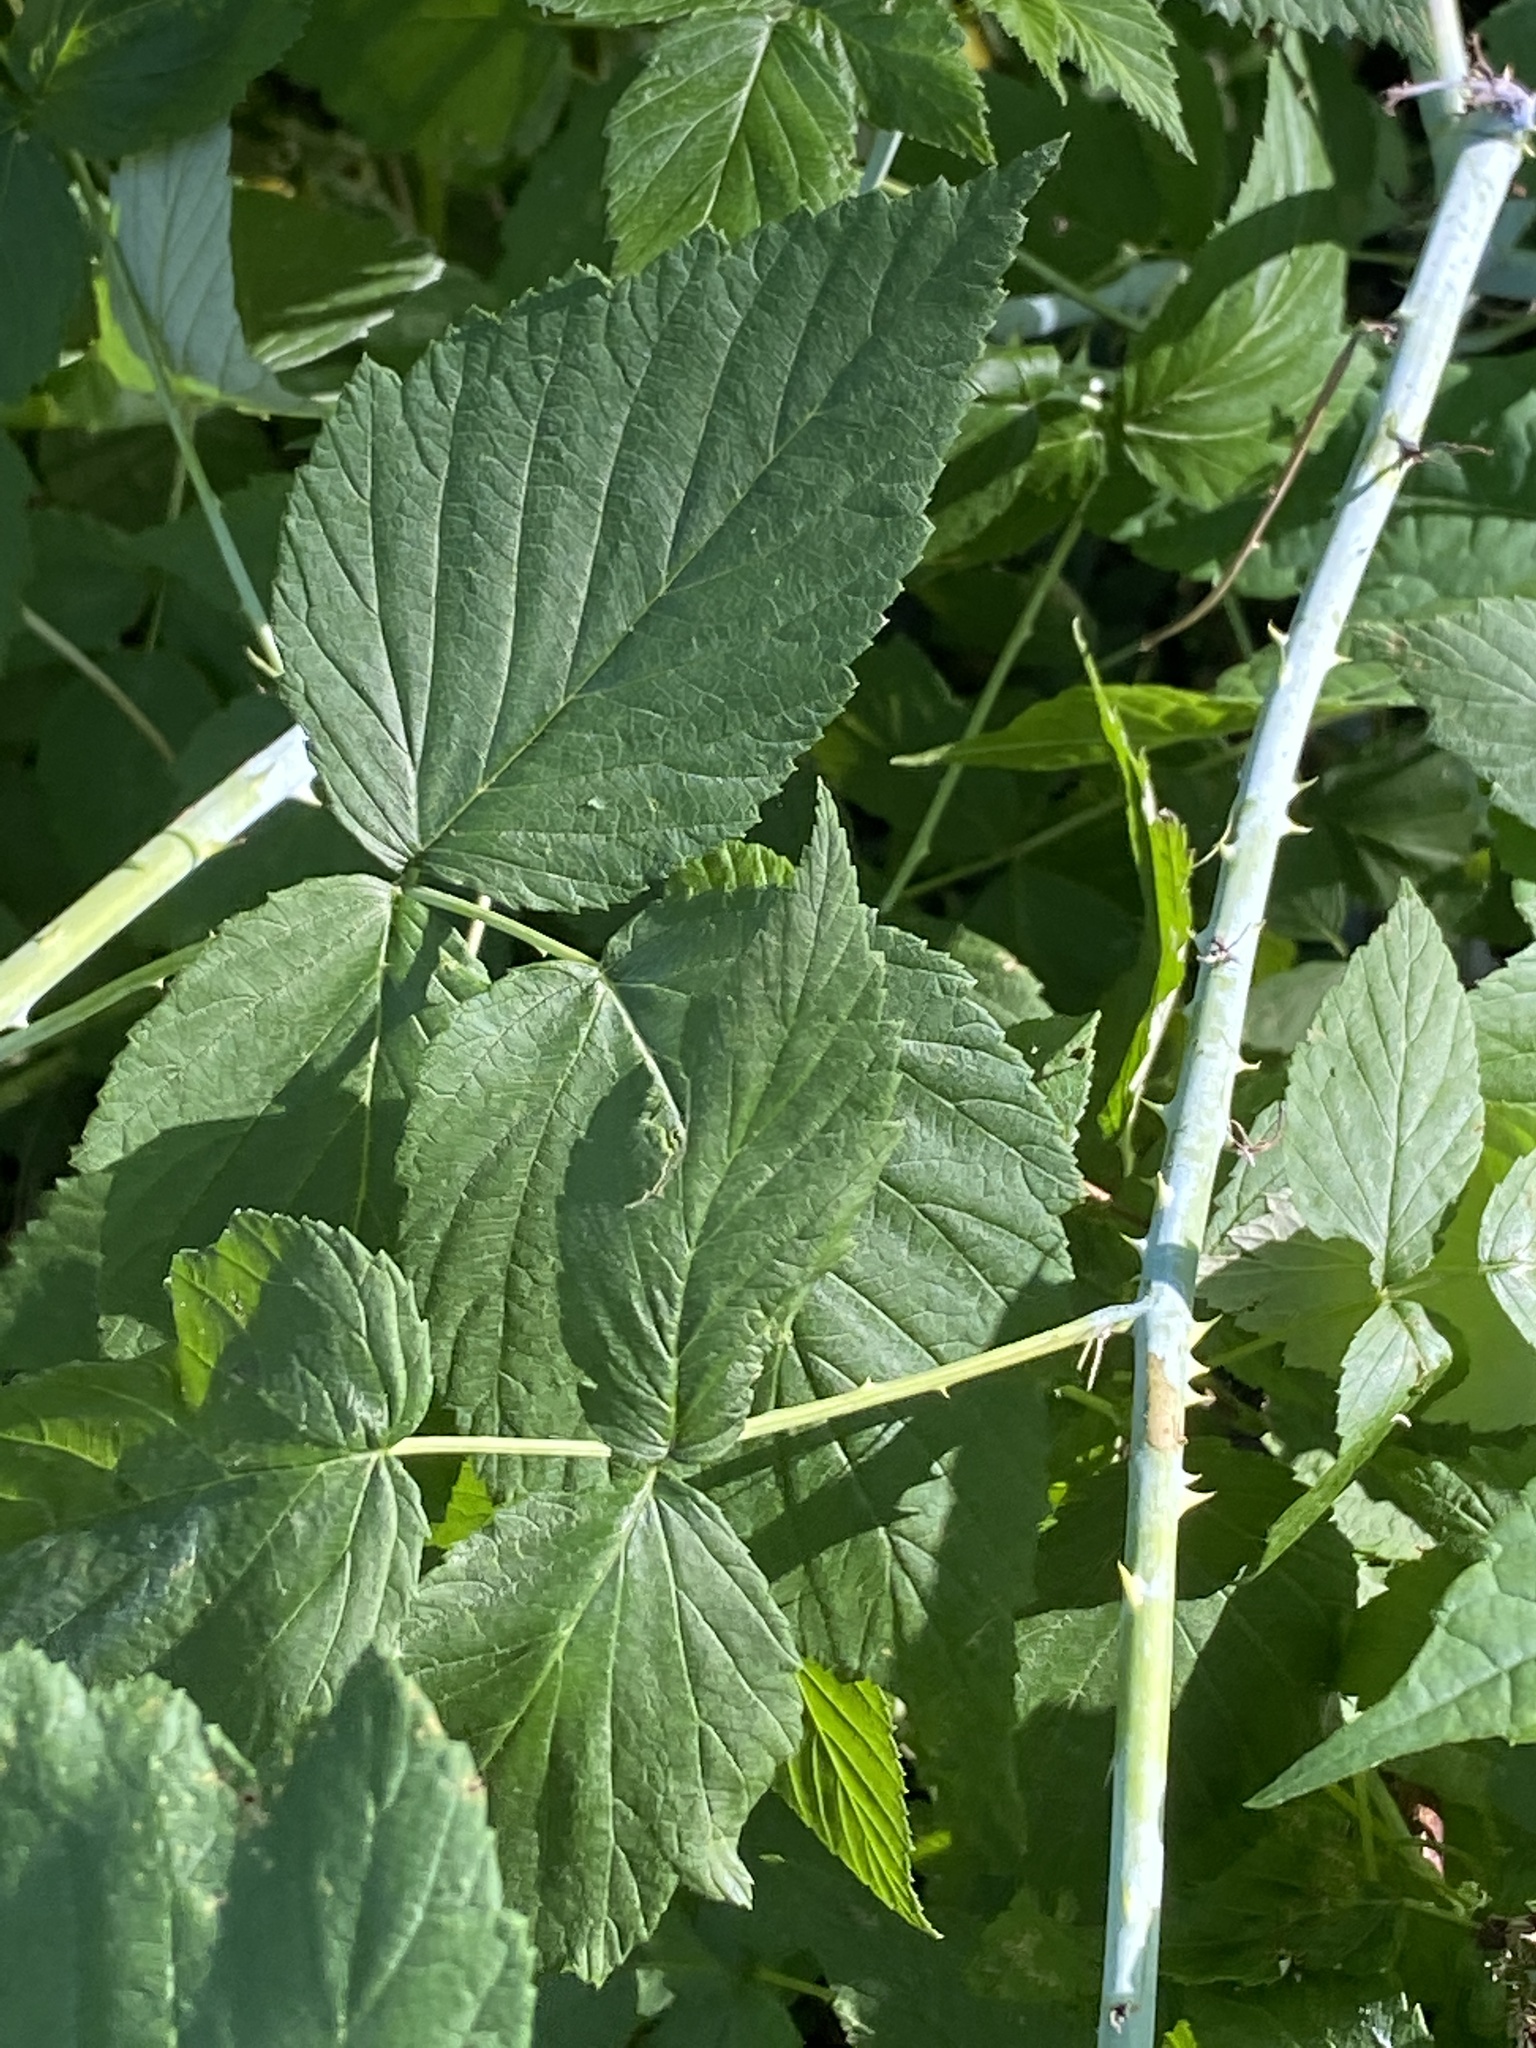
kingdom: Plantae
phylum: Tracheophyta
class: Magnoliopsida
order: Rosales
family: Rosaceae
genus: Rubus
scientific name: Rubus occidentalis
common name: Black raspberry
